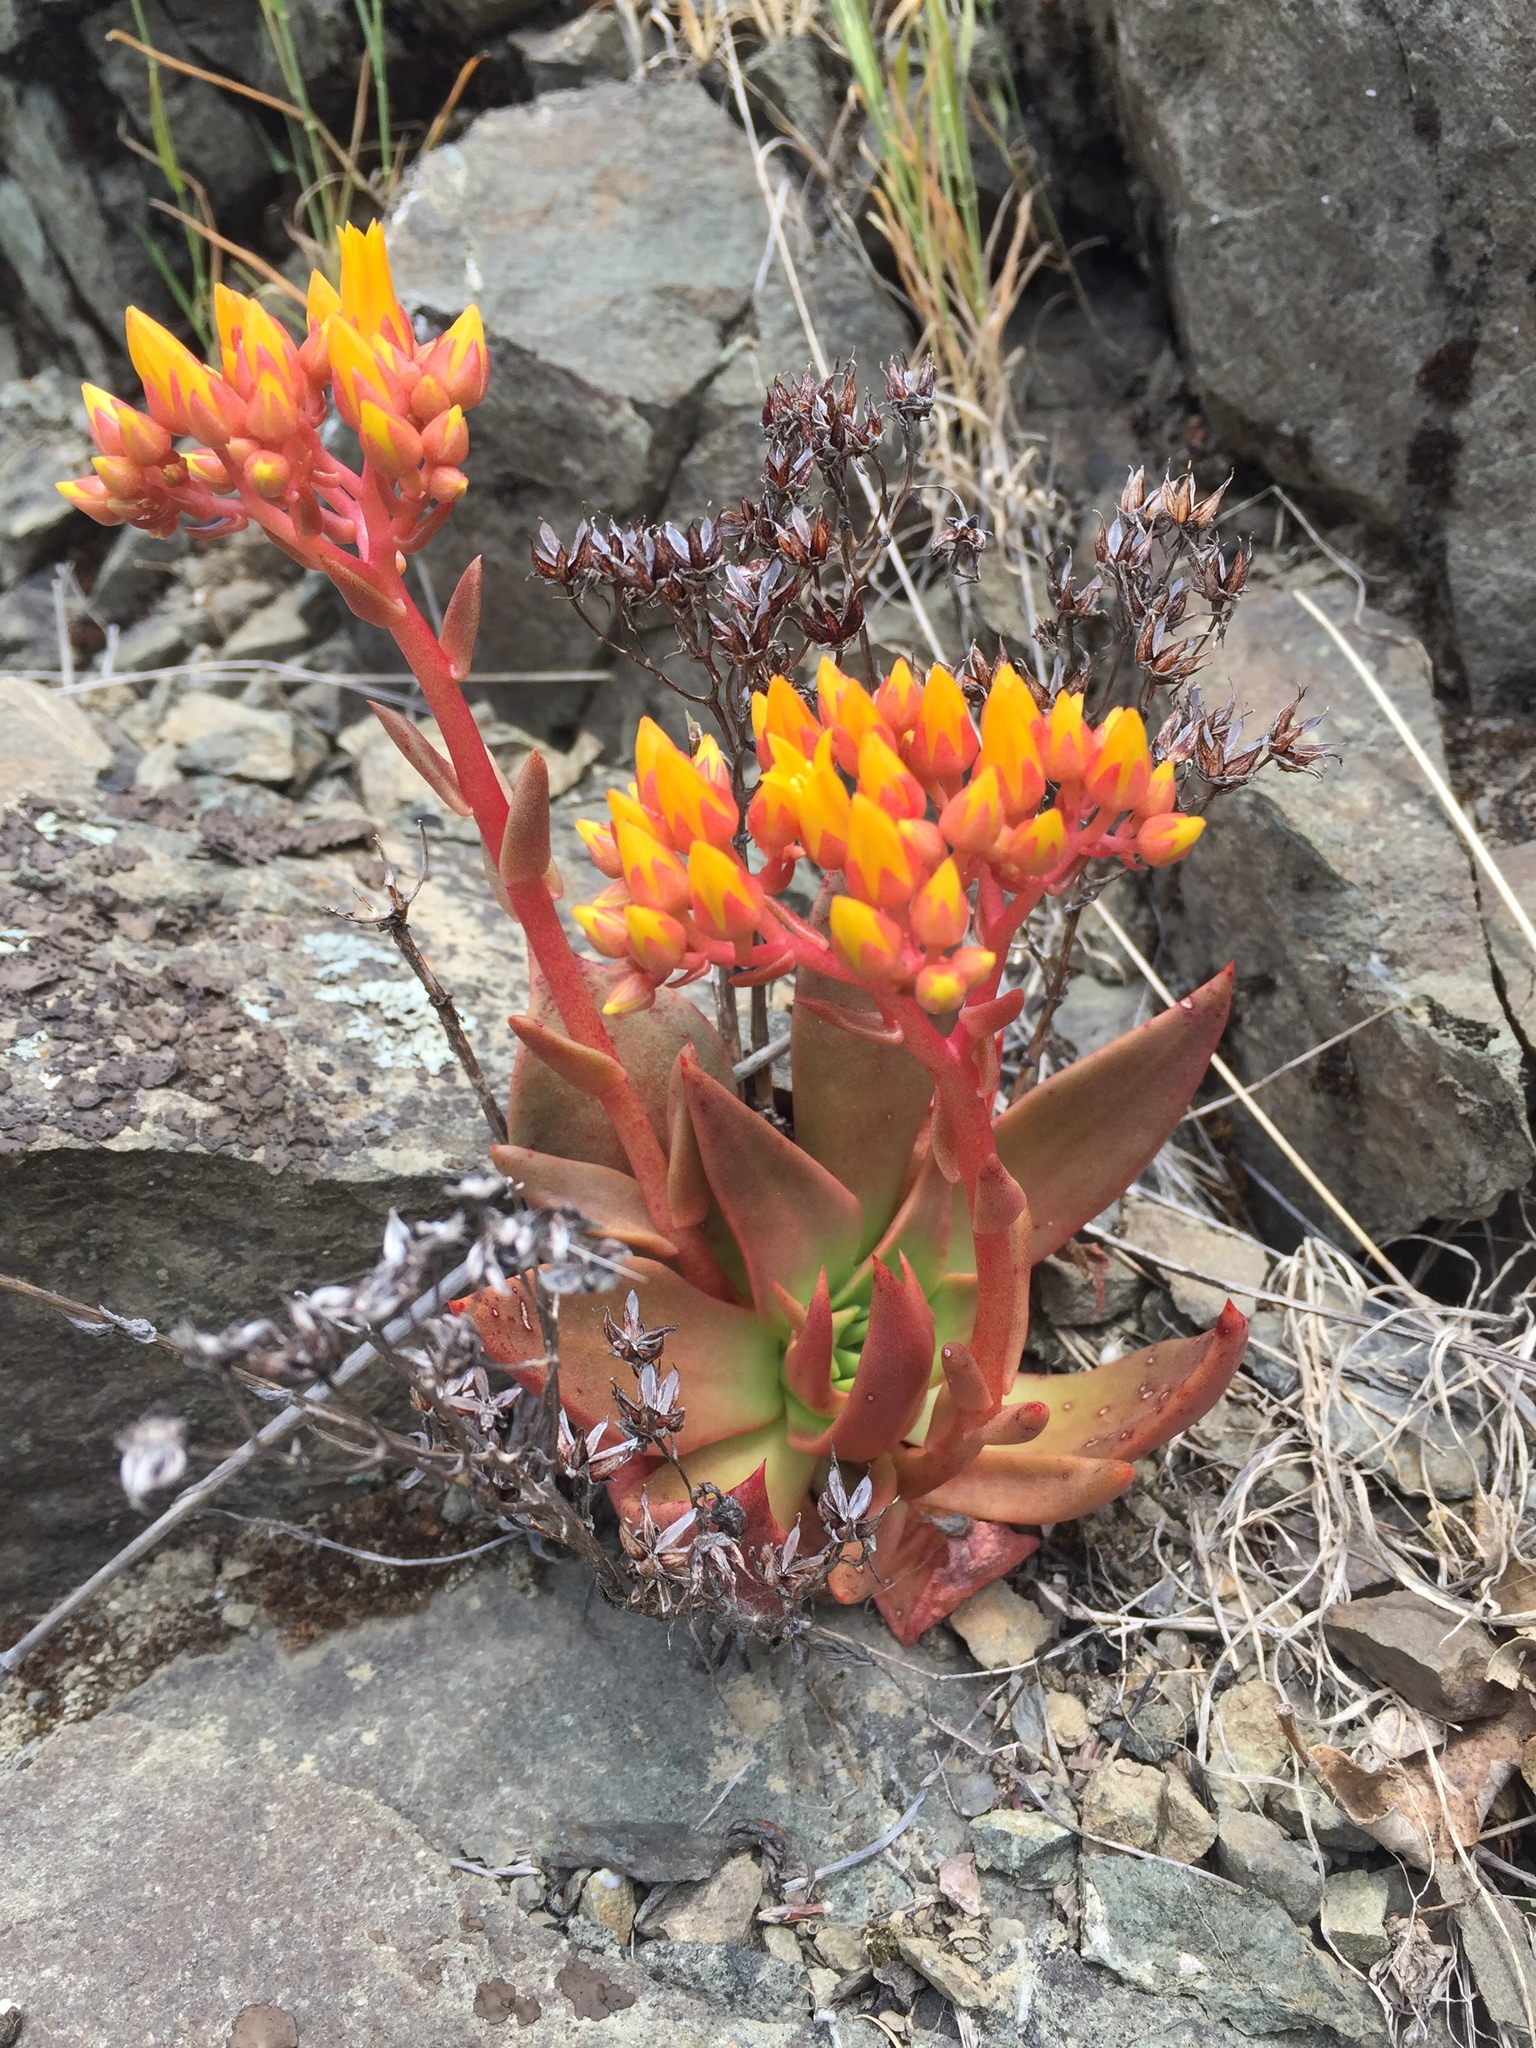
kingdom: Plantae
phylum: Tracheophyta
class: Magnoliopsida
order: Saxifragales
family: Crassulaceae
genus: Dudleya
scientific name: Dudleya cymosa
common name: Canyon dudleya
